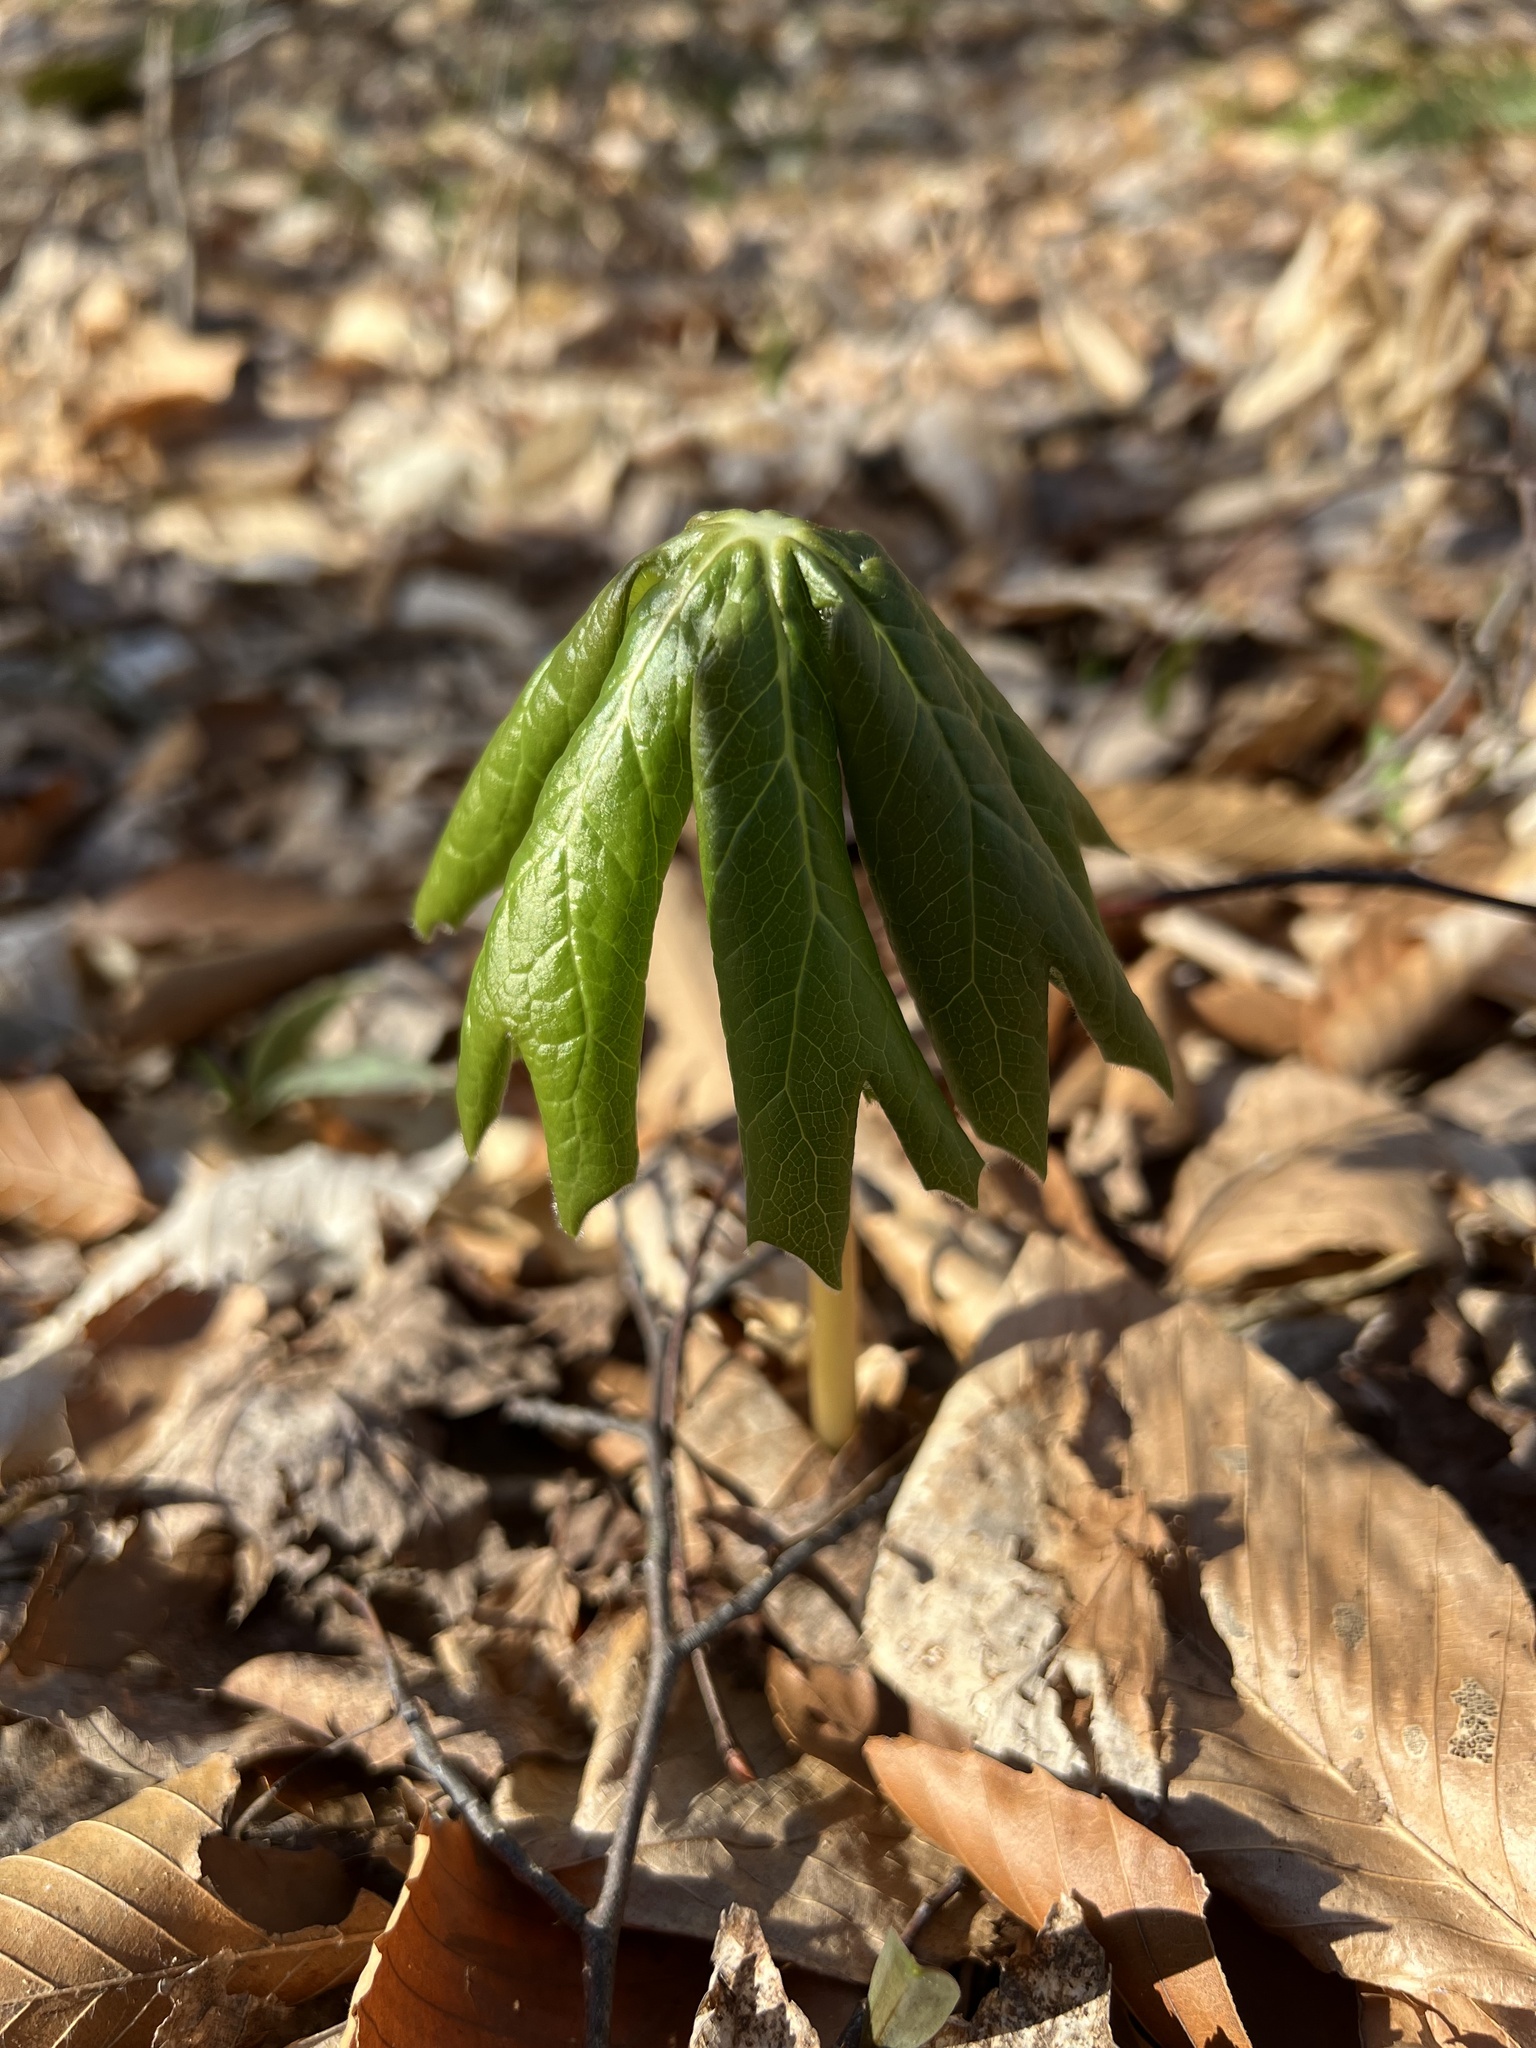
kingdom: Plantae
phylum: Tracheophyta
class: Magnoliopsida
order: Ranunculales
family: Berberidaceae
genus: Podophyllum
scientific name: Podophyllum peltatum
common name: Wild mandrake
